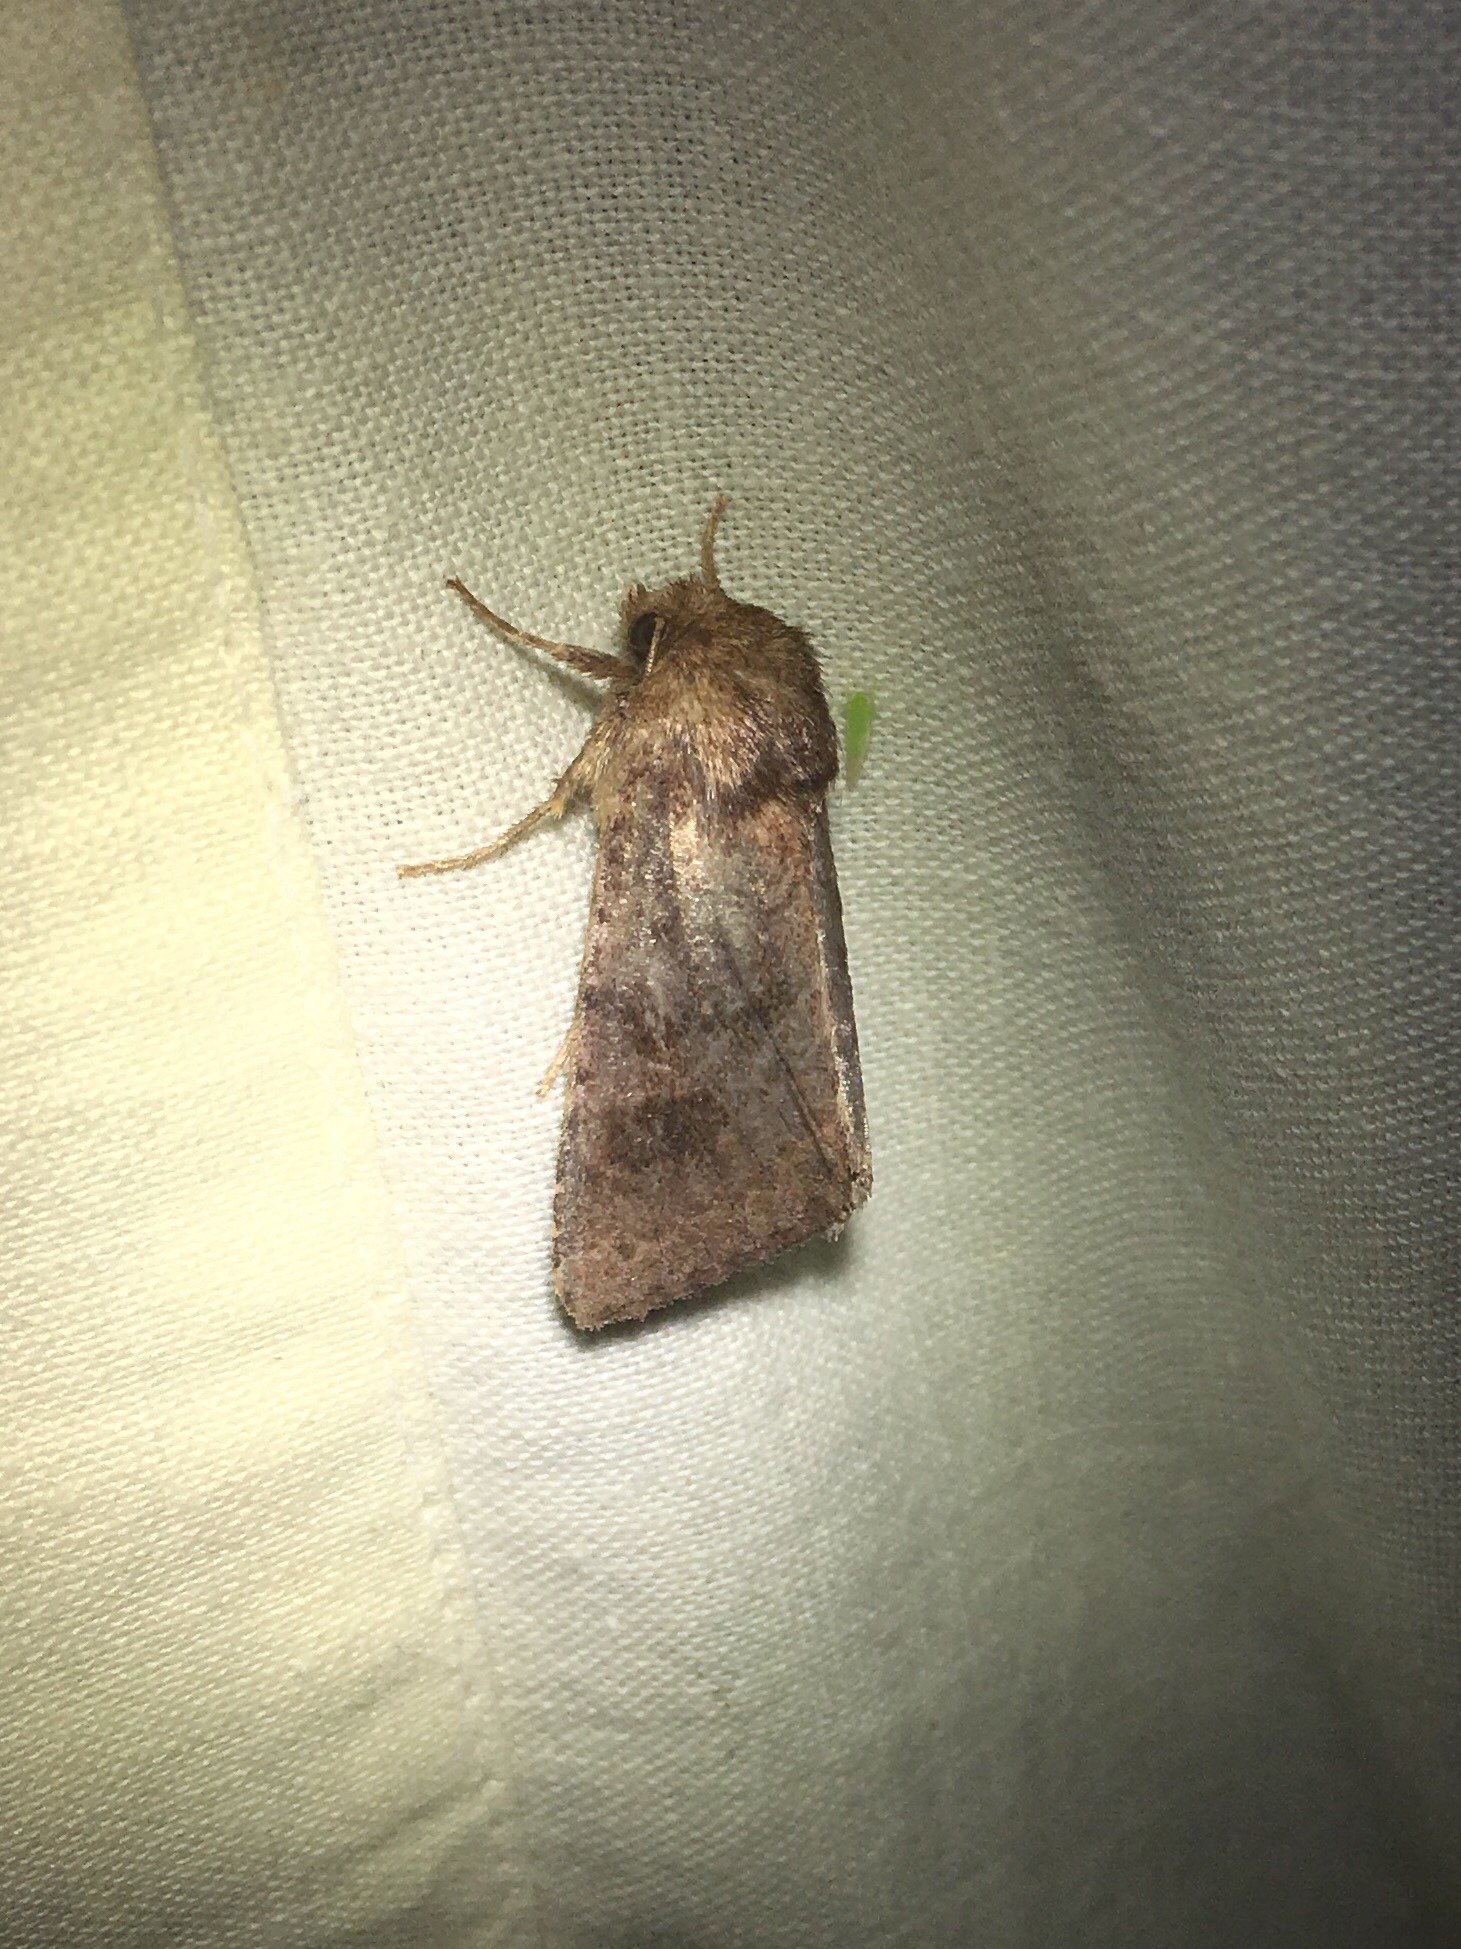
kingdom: Animalia
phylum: Arthropoda
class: Insecta
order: Lepidoptera
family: Noctuidae
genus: Nephelodes
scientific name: Nephelodes minians
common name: Bronzed cutworm
